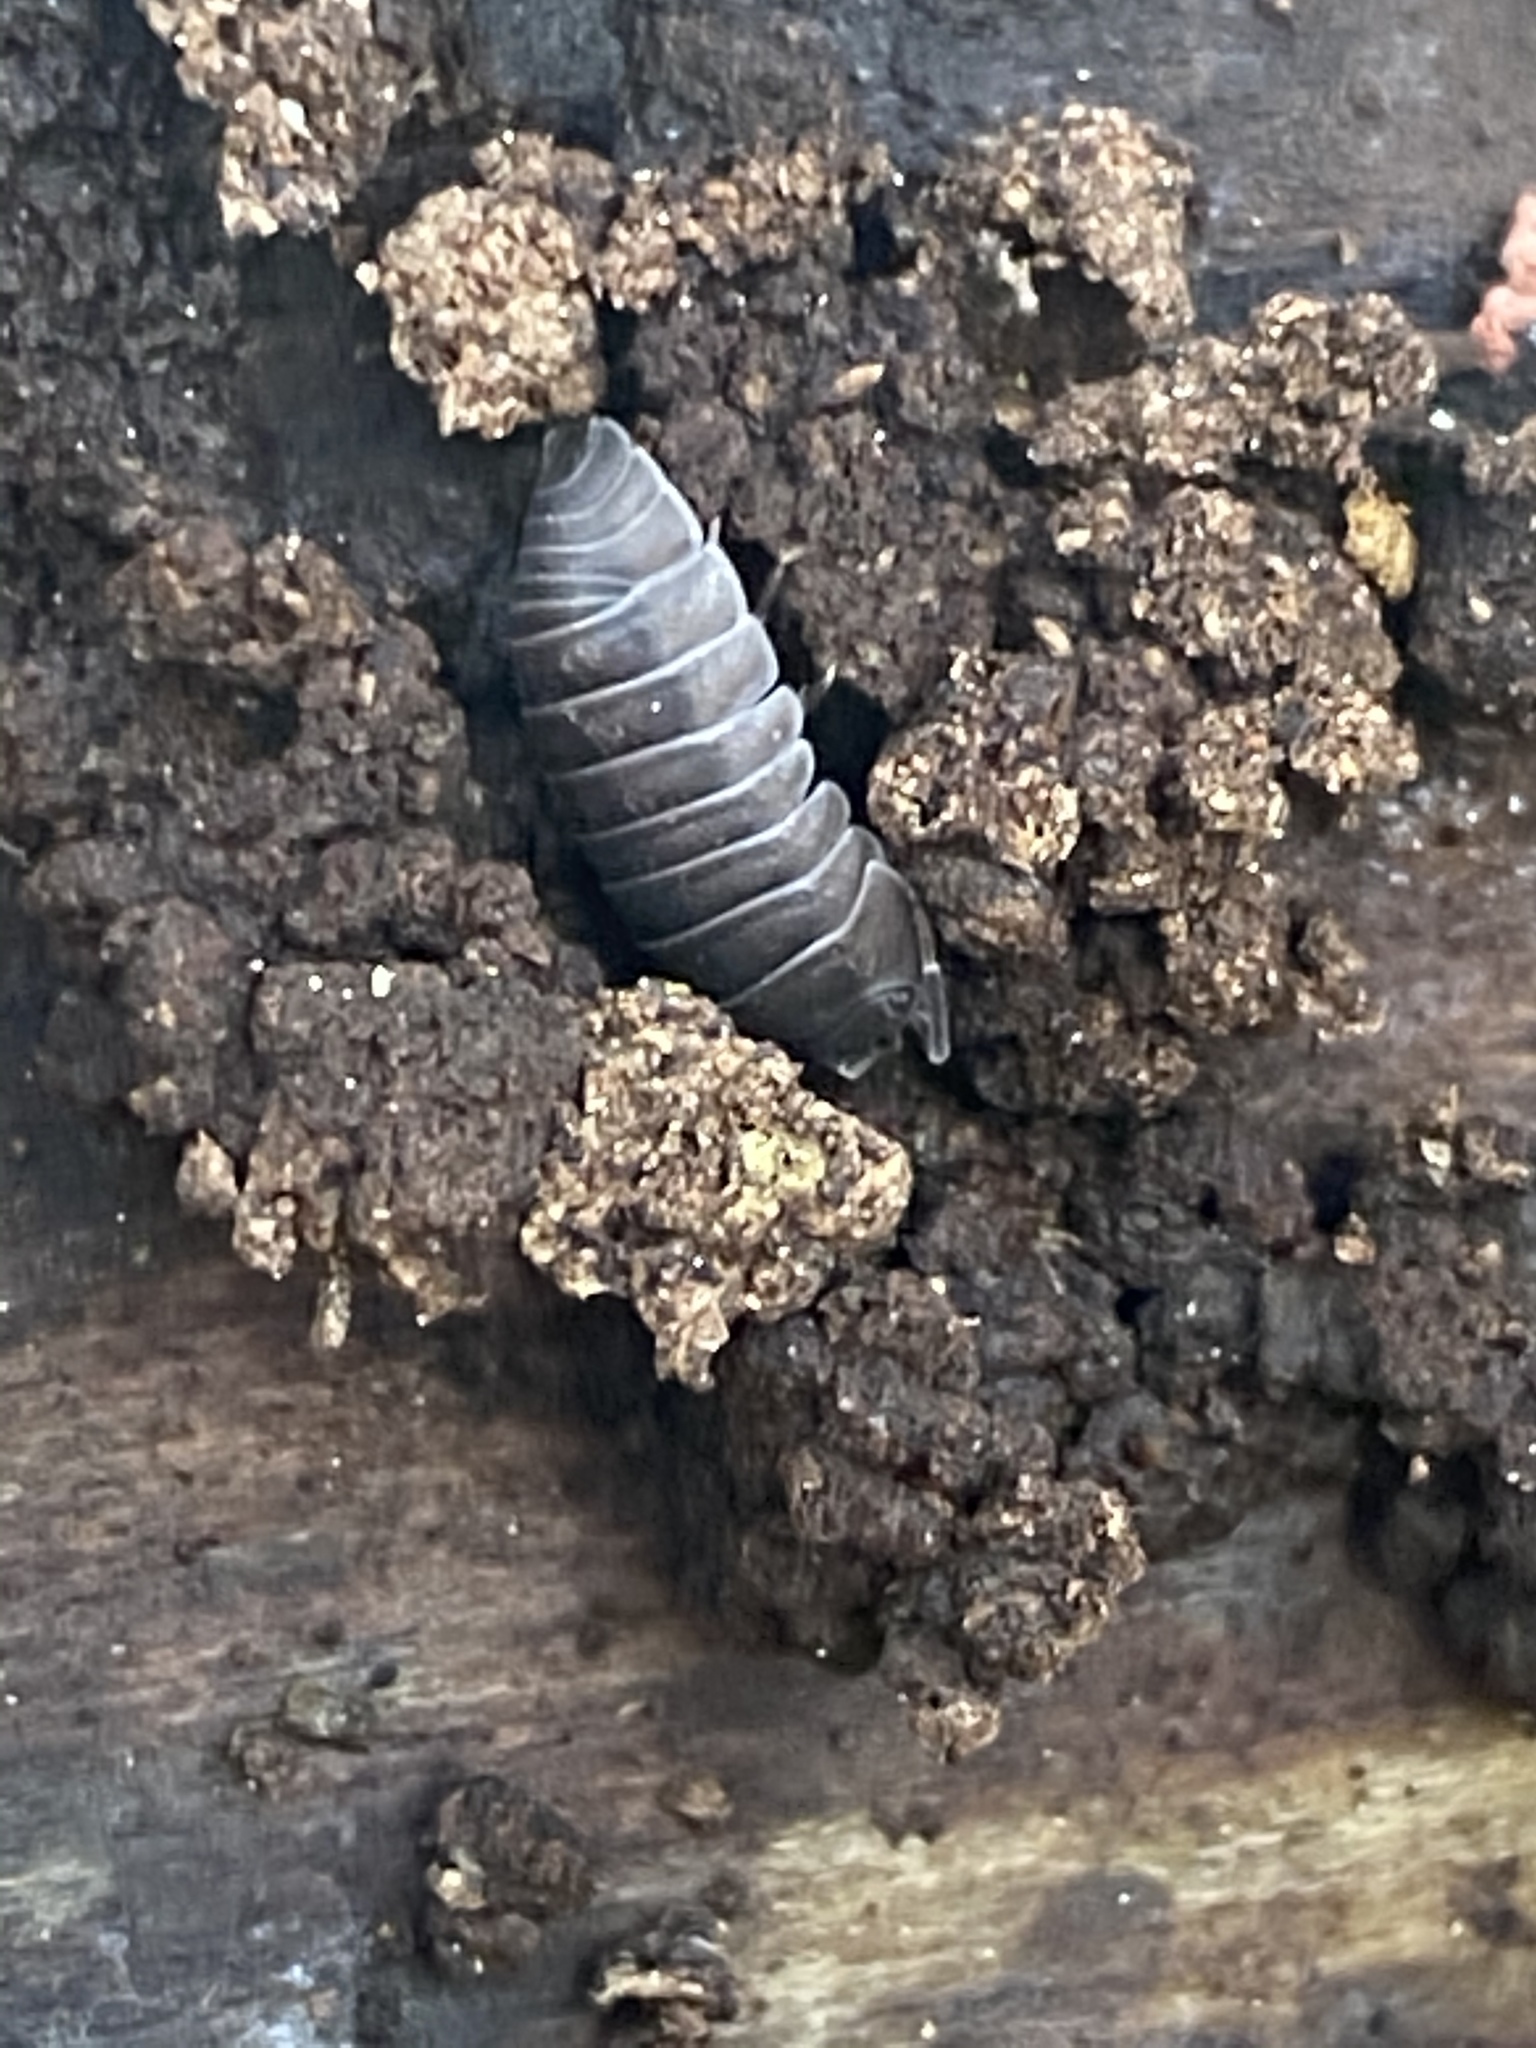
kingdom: Animalia
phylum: Arthropoda
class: Malacostraca
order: Isopoda
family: Armadillidiidae
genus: Armadillidium
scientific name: Armadillidium nasatum
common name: Isopod
